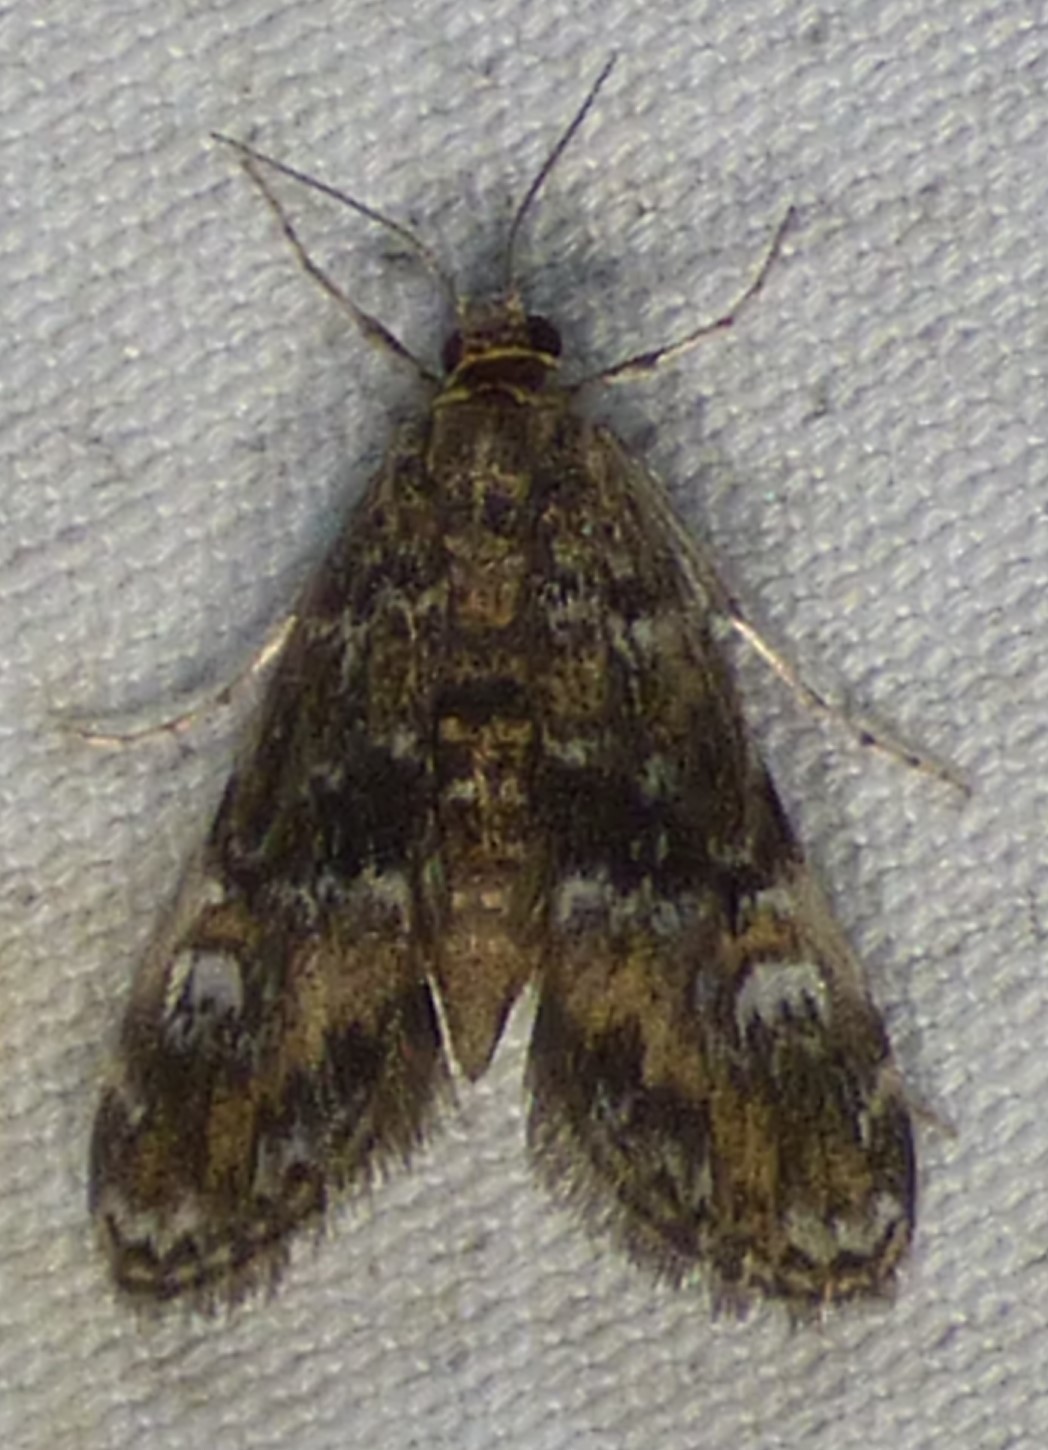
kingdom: Animalia
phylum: Arthropoda
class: Insecta
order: Lepidoptera
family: Crambidae
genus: Elophila
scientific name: Elophila obliteralis
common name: Waterlily leafcutter moth
